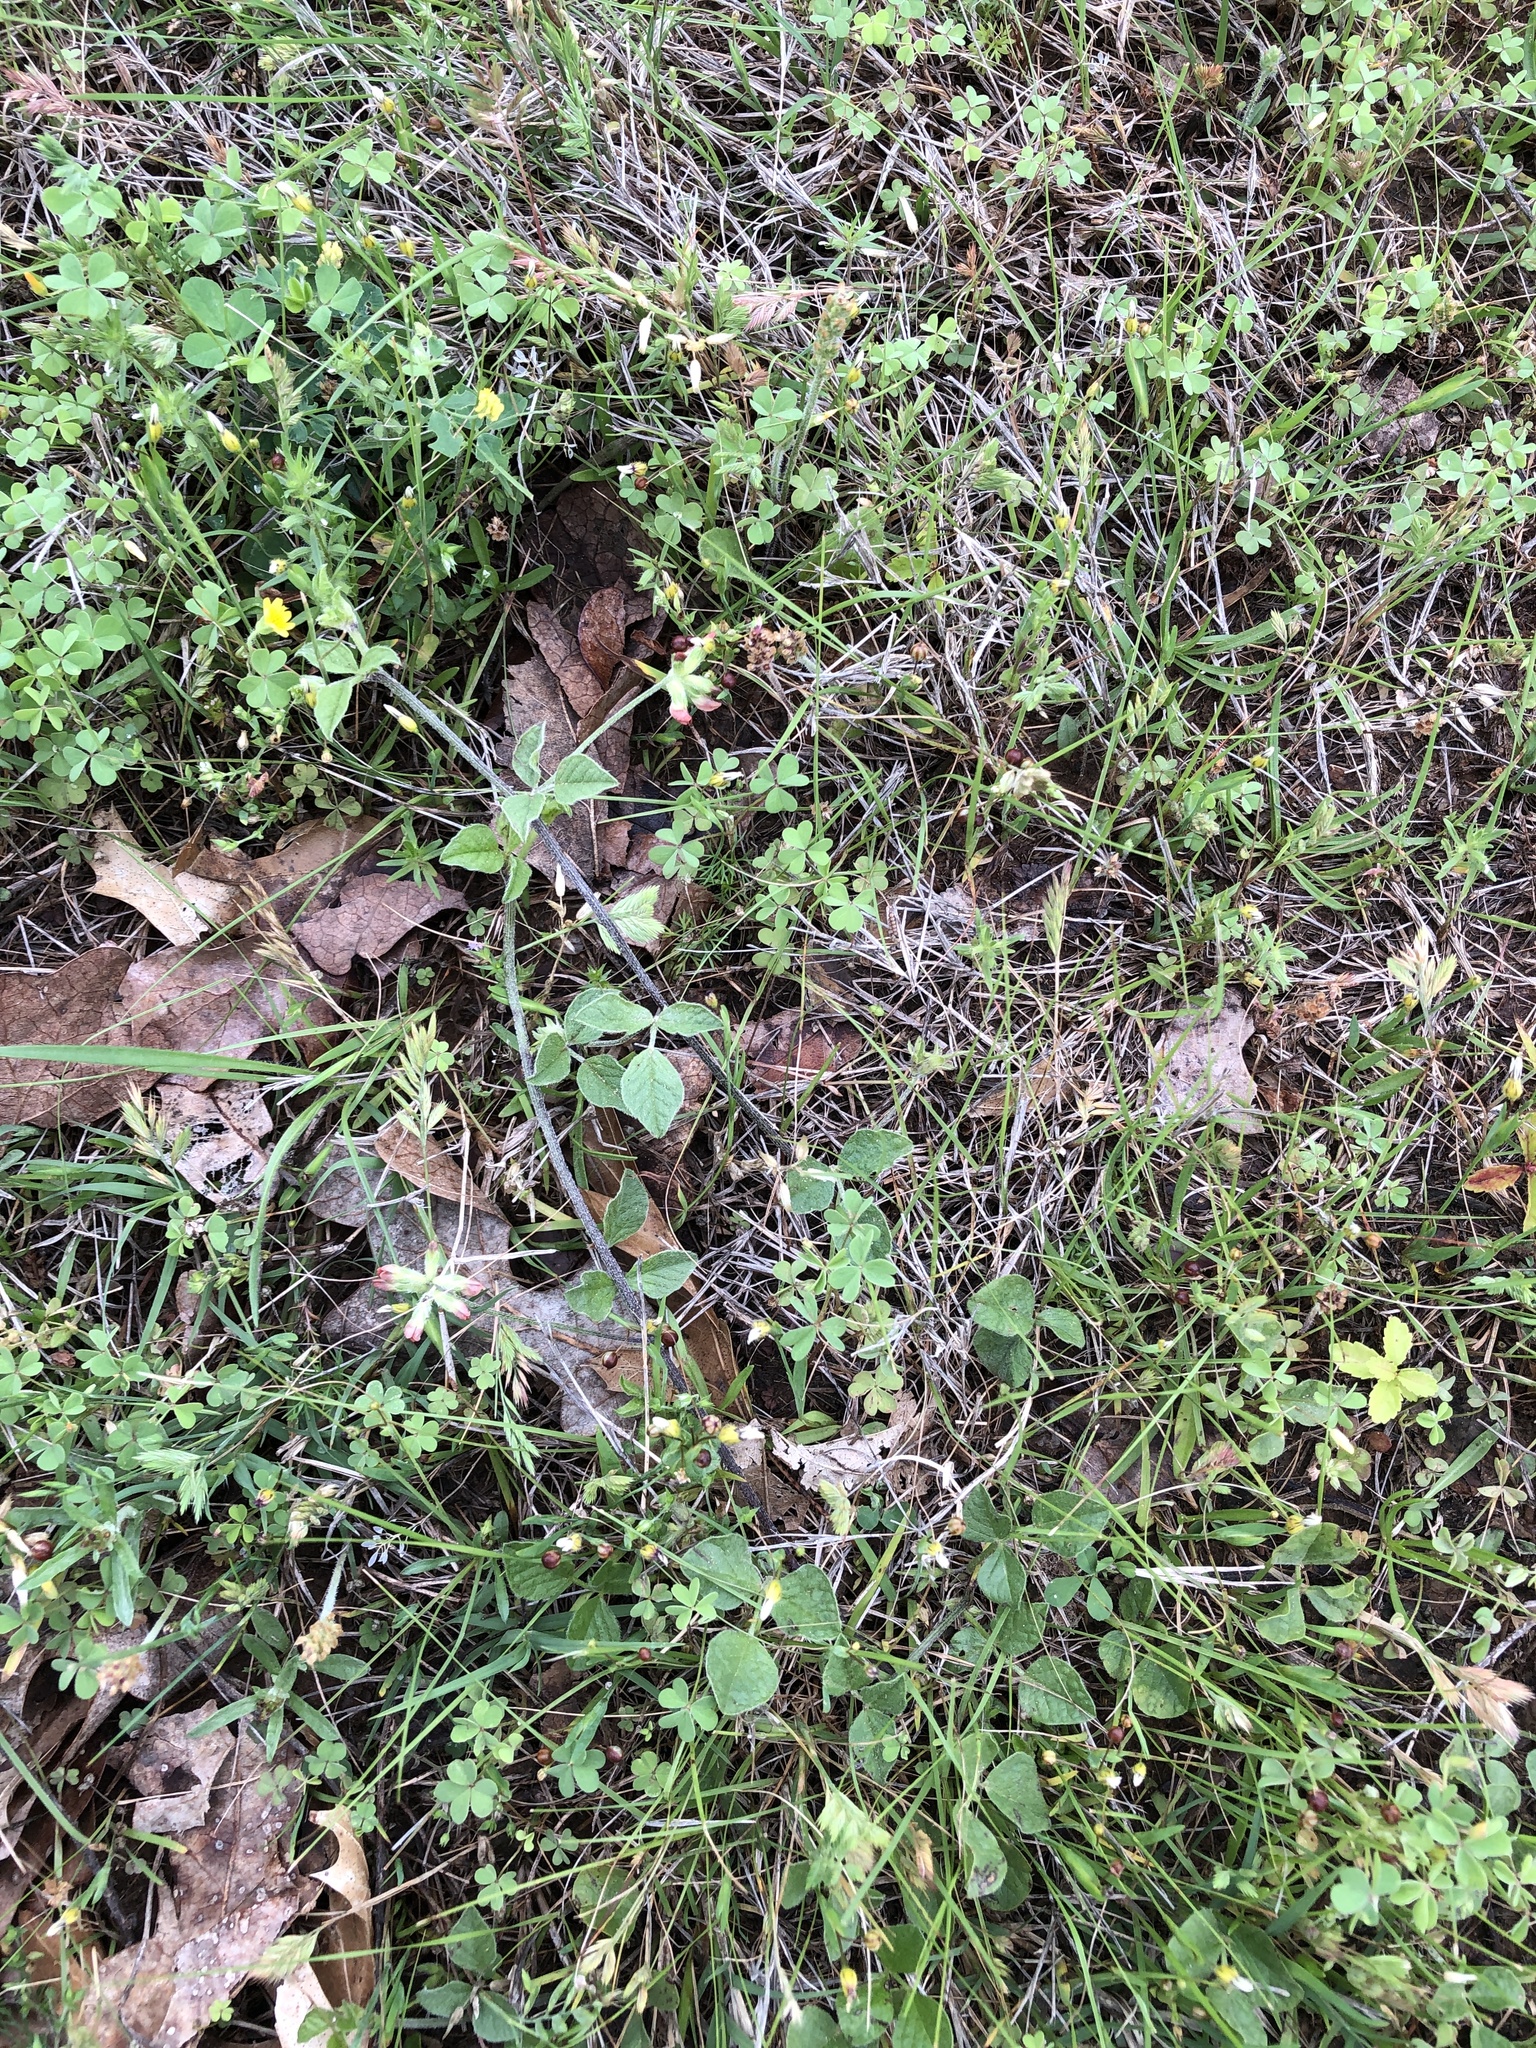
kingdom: Plantae
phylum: Tracheophyta
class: Magnoliopsida
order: Fabales
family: Fabaceae
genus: Pediomelum
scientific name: Pediomelum rhombifolium
